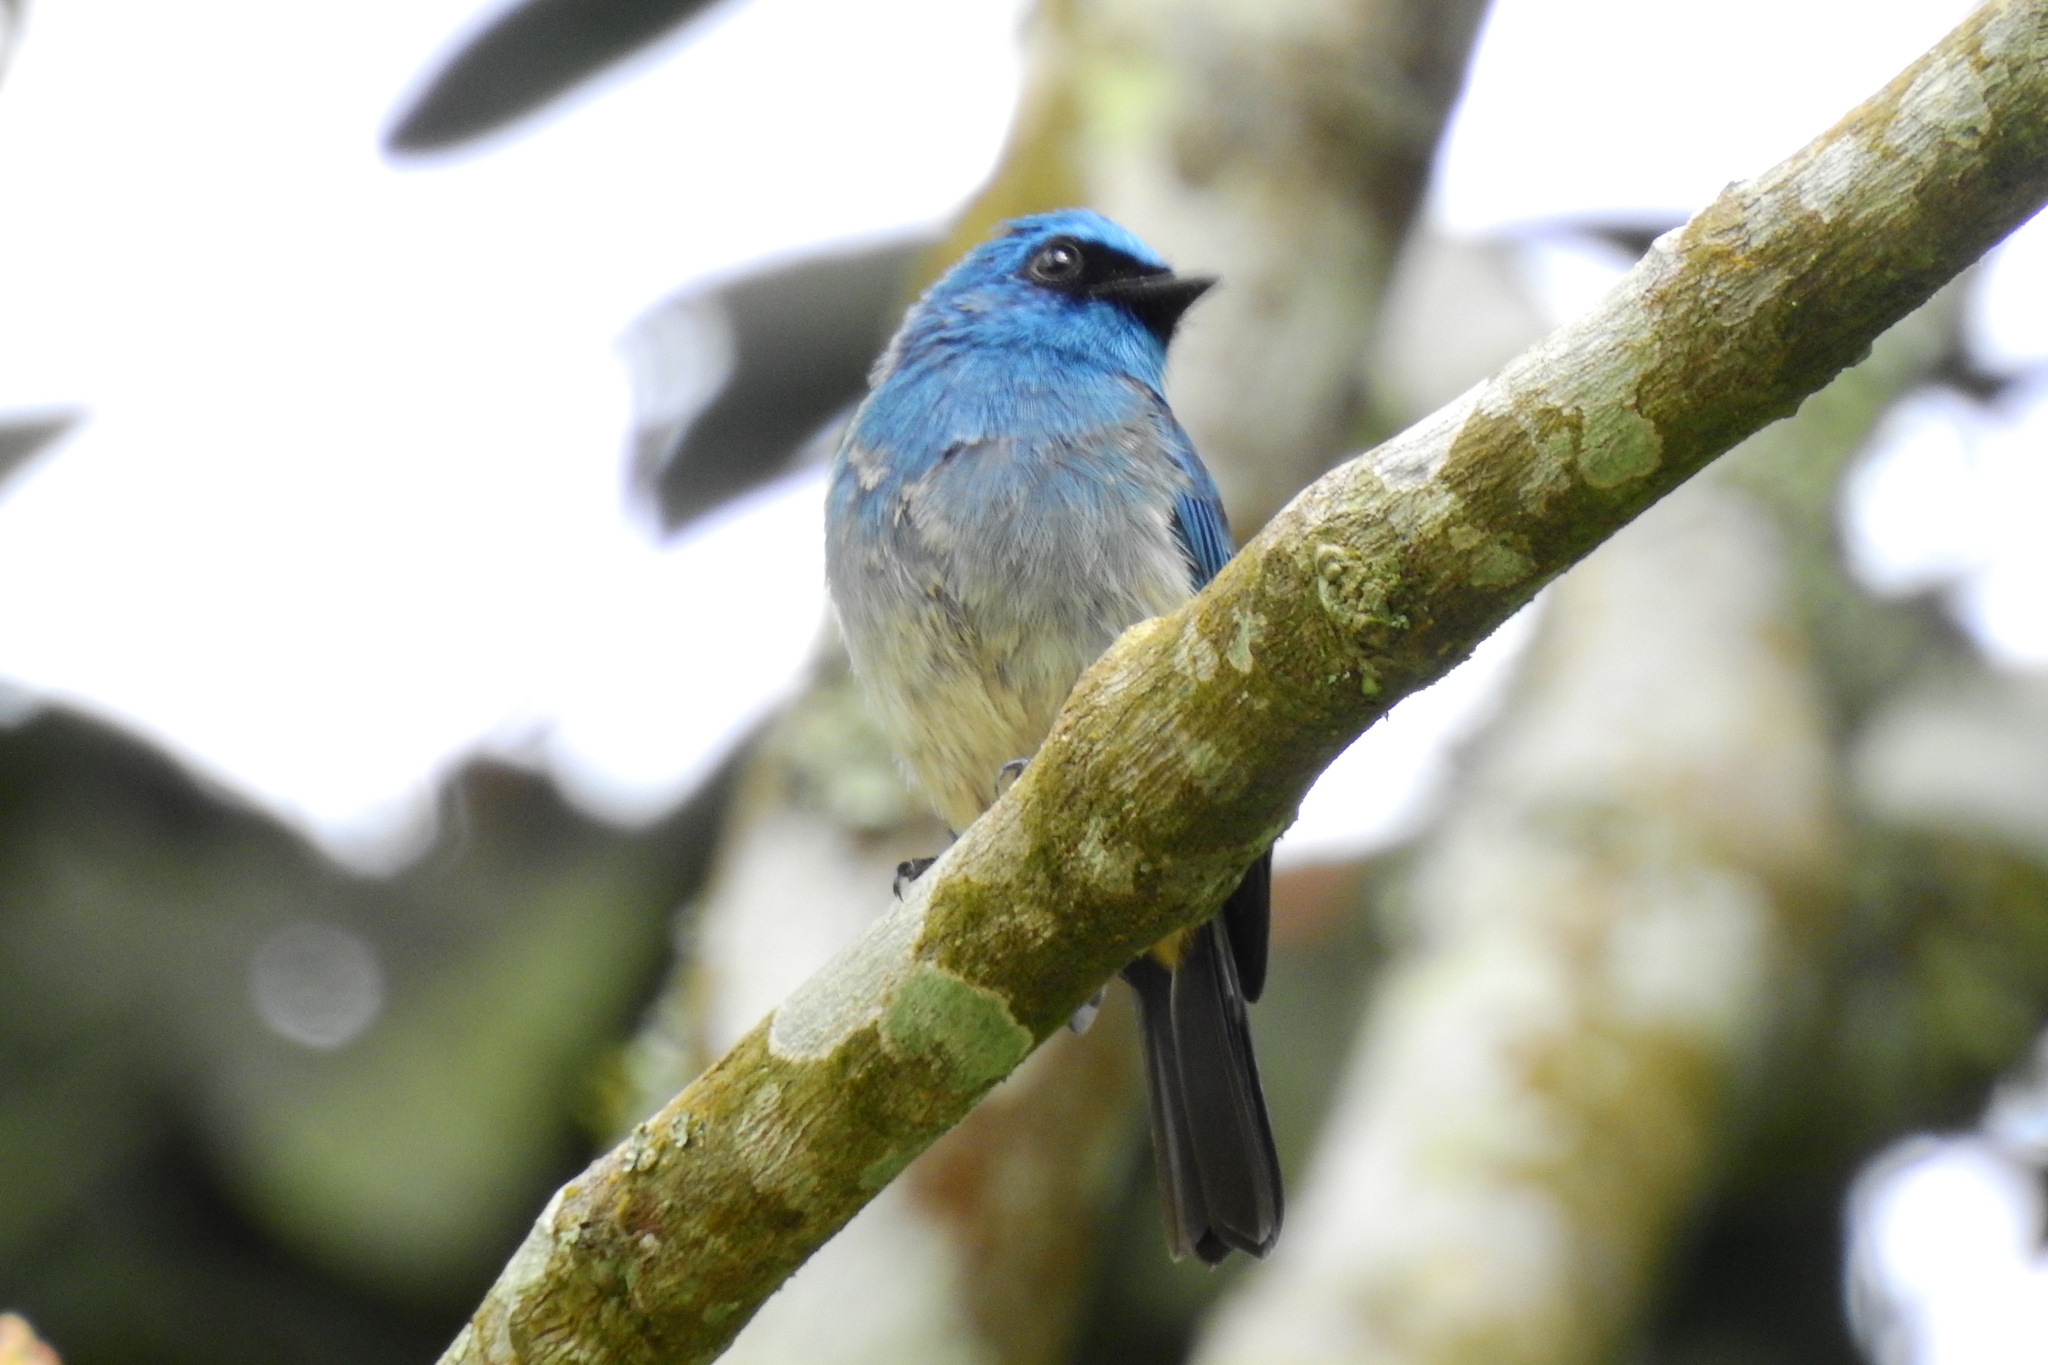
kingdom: Animalia
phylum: Chordata
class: Aves
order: Passeriformes
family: Muscicapidae
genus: Eumyias
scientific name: Eumyias indigo
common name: Indigo flycatcher
